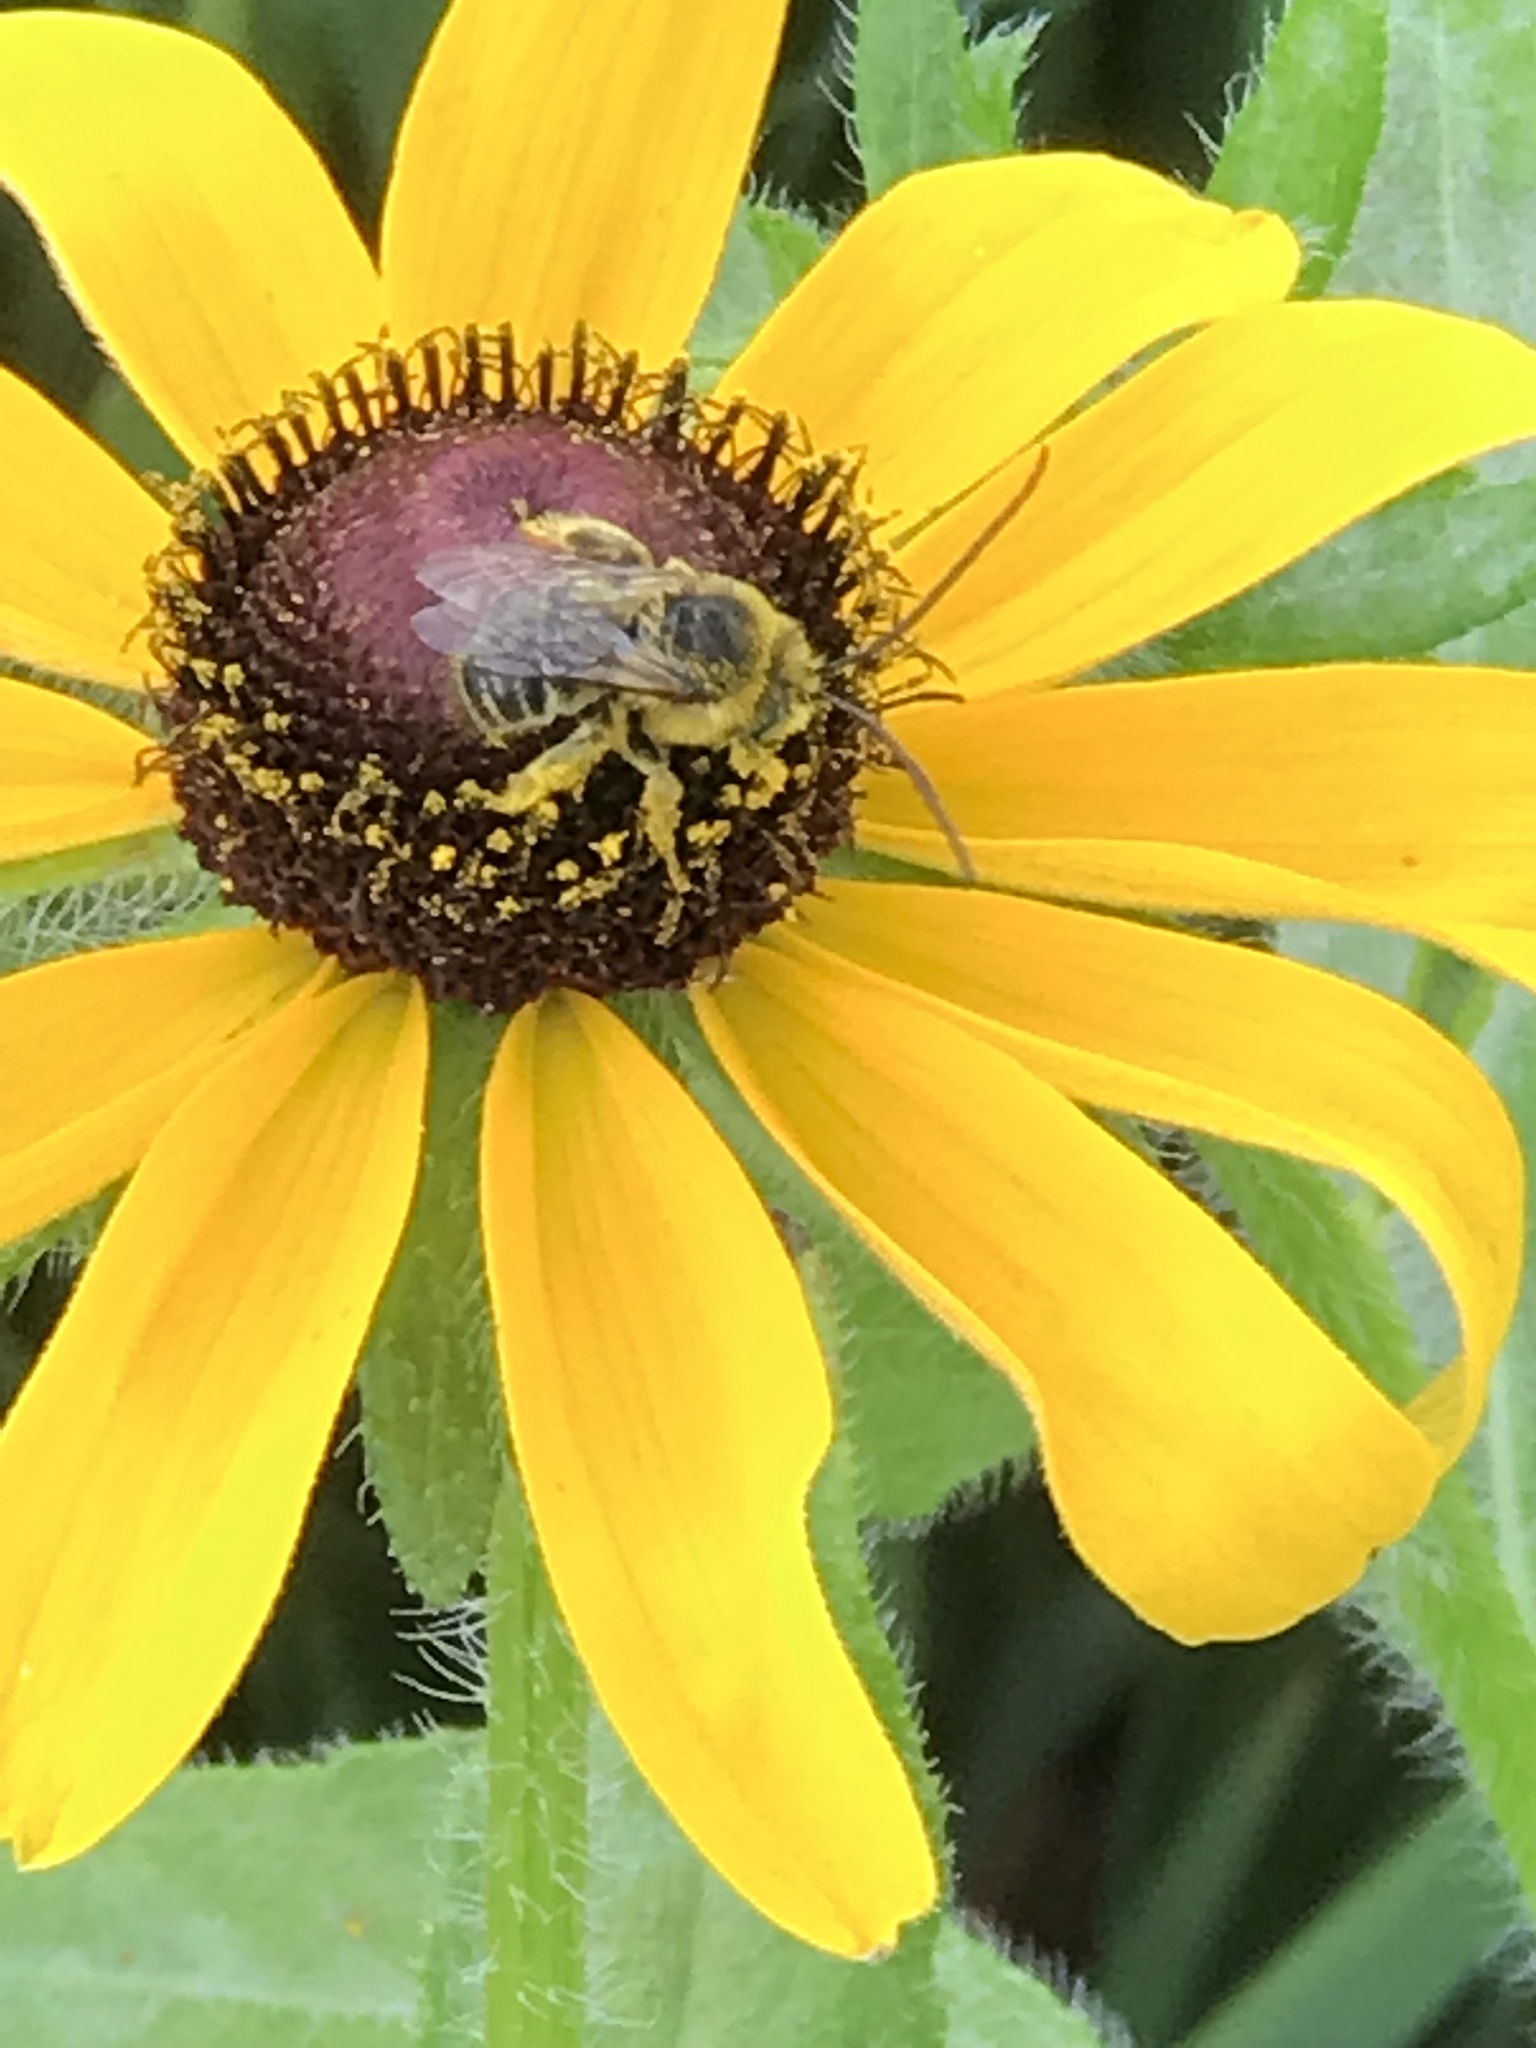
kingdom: Animalia
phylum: Arthropoda
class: Insecta
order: Hymenoptera
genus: Eumelissodes
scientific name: Eumelissodes
